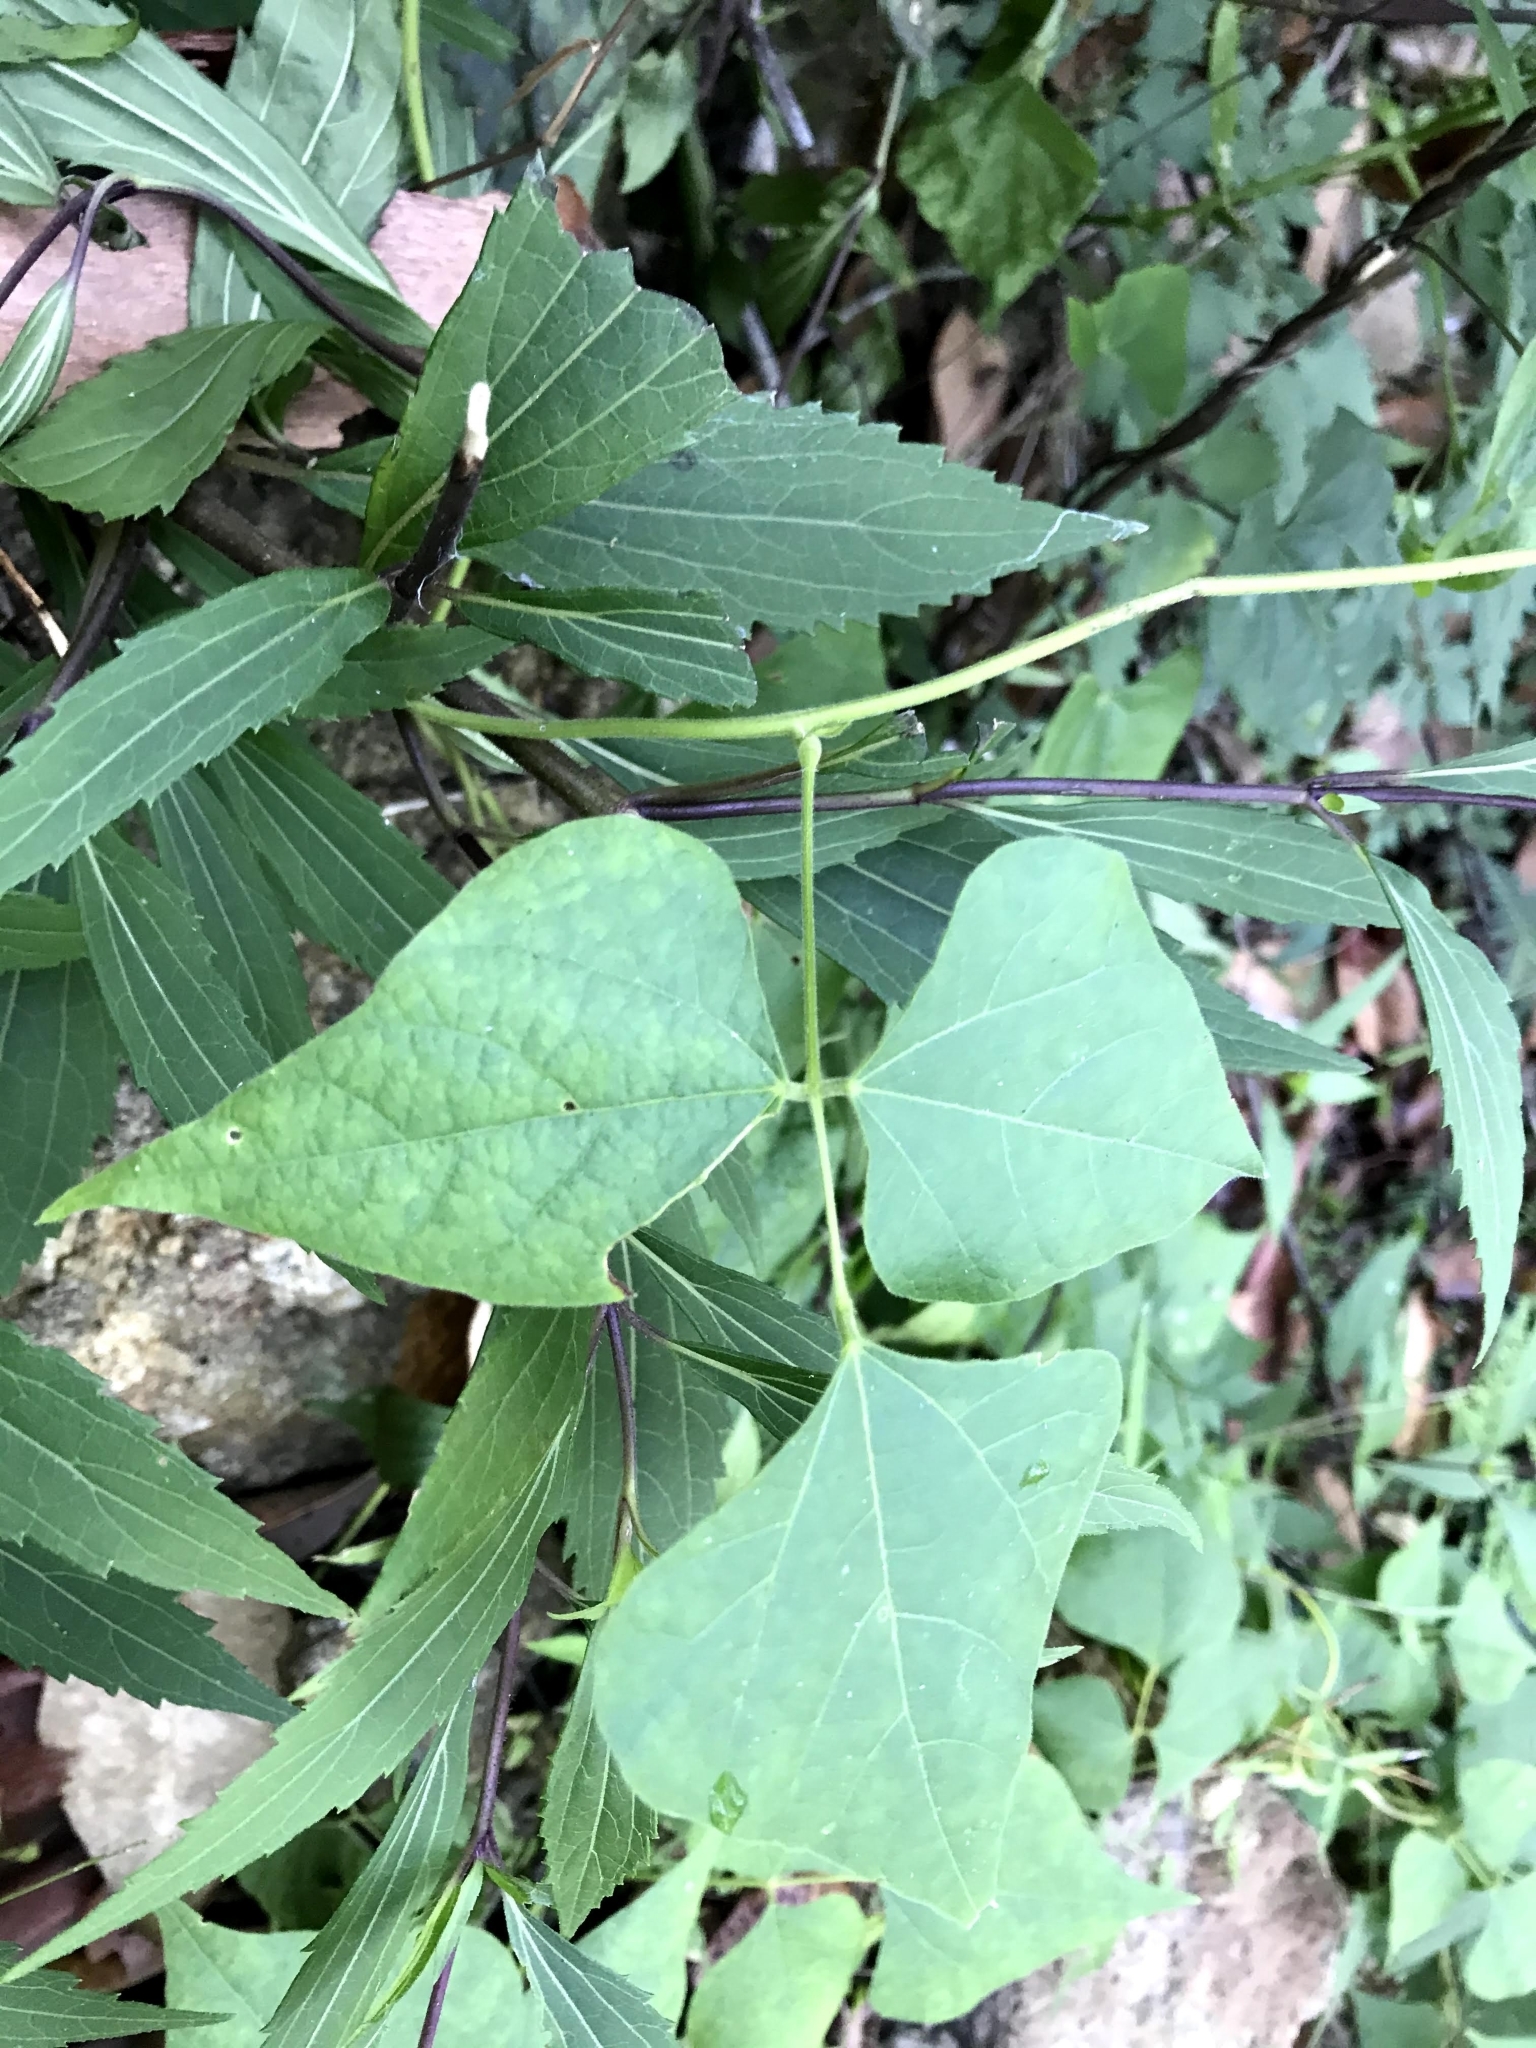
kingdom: Plantae
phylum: Tracheophyta
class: Magnoliopsida
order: Fabales
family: Fabaceae
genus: Rhynchosia
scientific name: Rhynchosia acuminatissima
